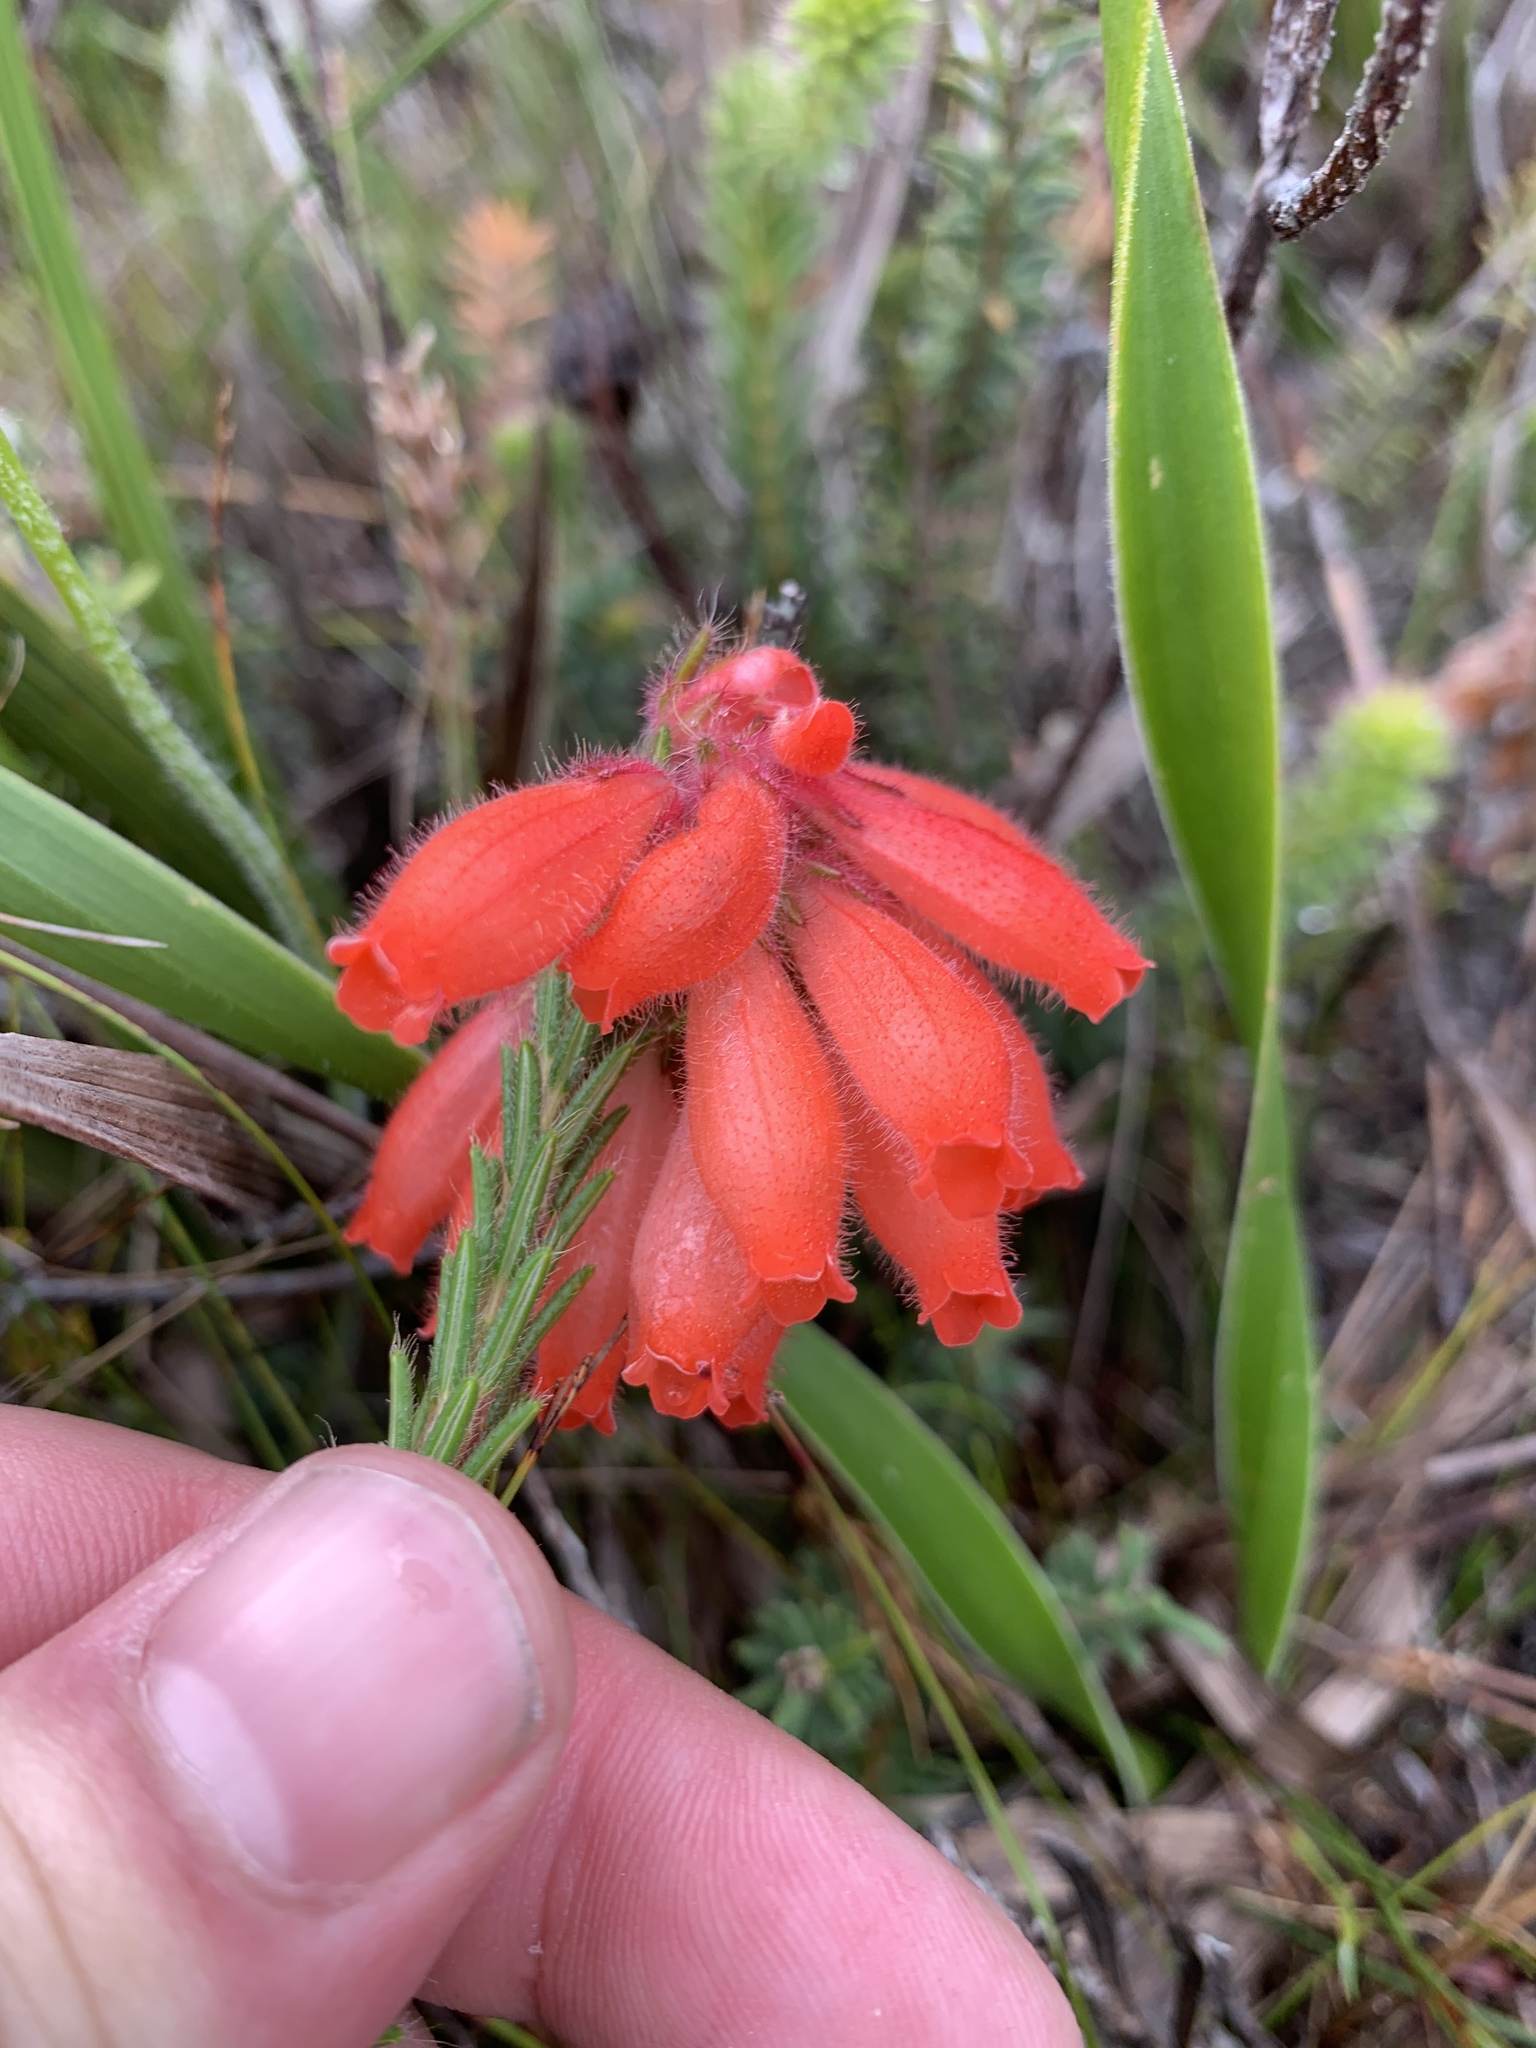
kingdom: Plantae
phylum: Tracheophyta
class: Magnoliopsida
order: Ericales
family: Ericaceae
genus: Erica
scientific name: Erica cerinthoides
